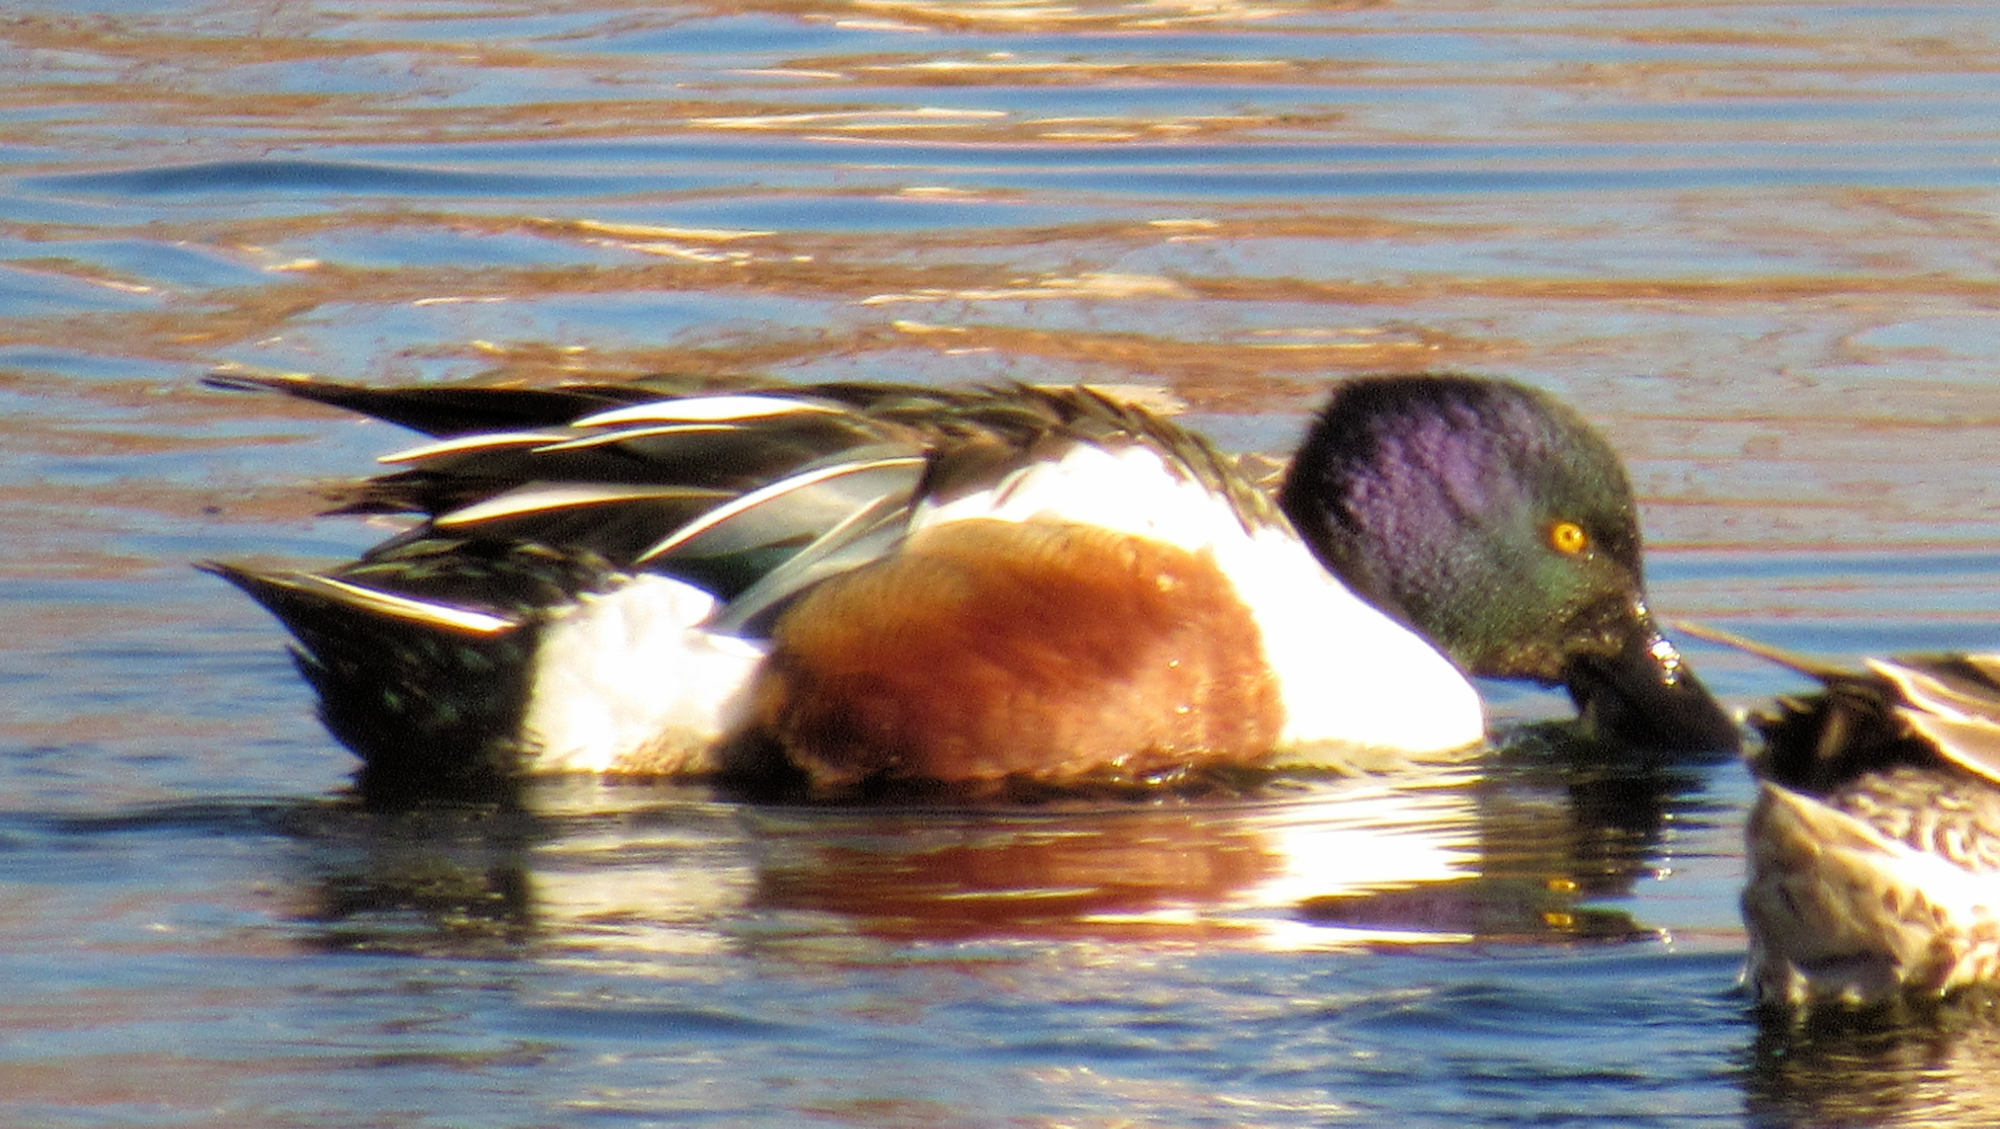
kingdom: Animalia
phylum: Chordata
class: Aves
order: Anseriformes
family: Anatidae
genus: Spatula
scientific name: Spatula clypeata
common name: Northern shoveler
